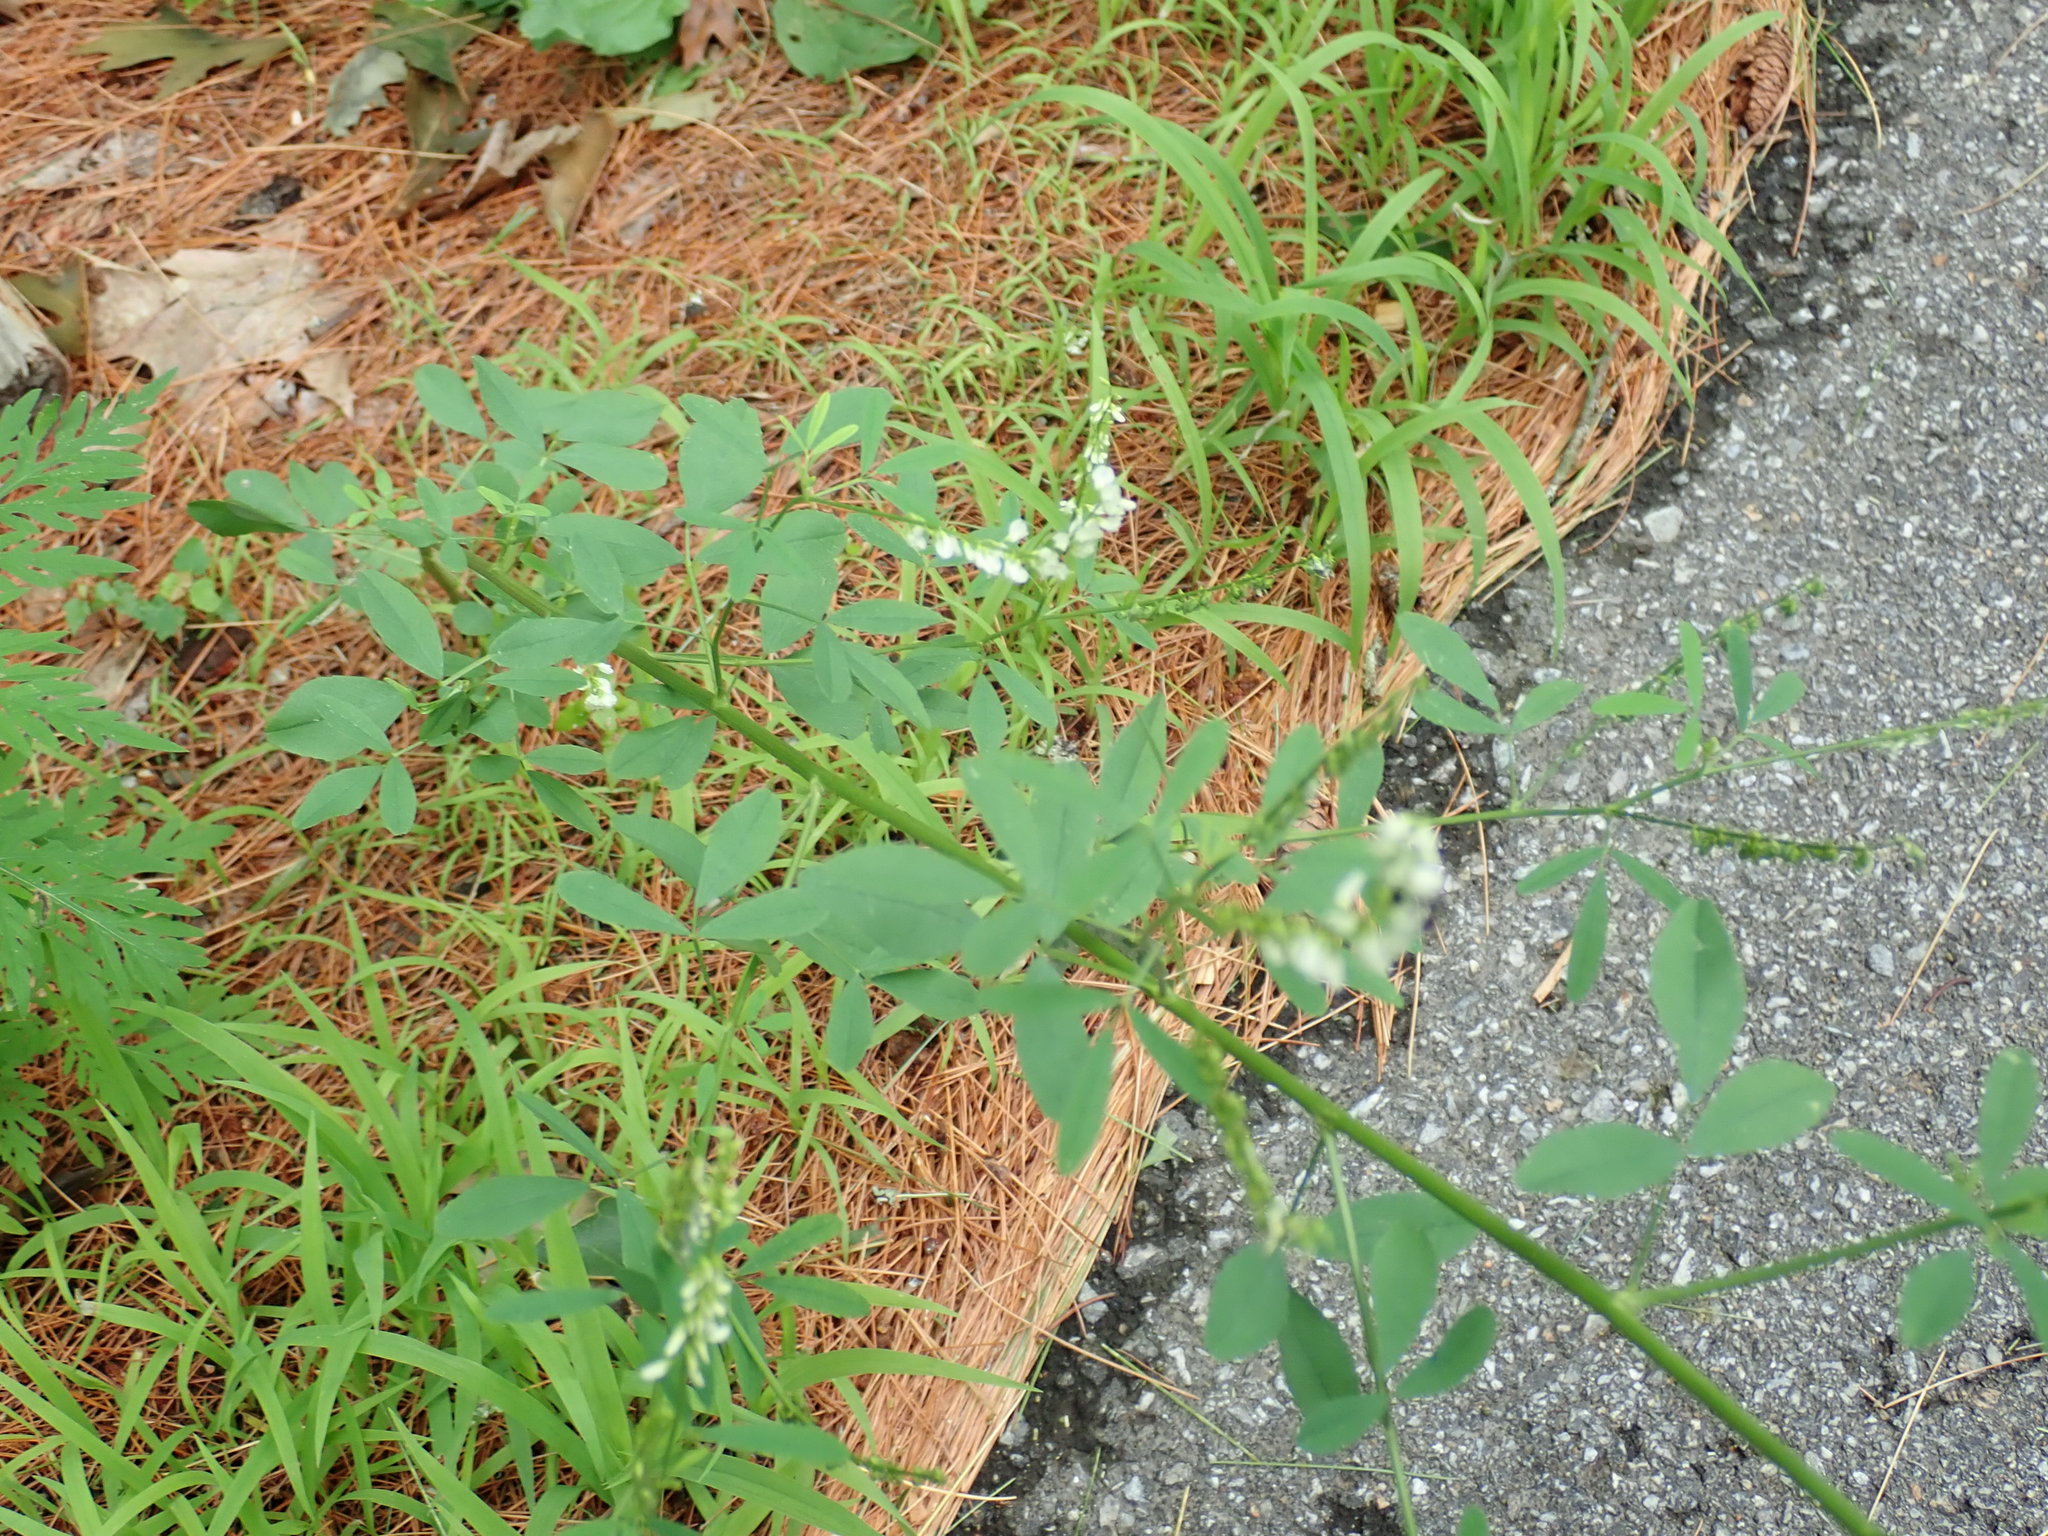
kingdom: Plantae
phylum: Tracheophyta
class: Magnoliopsida
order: Fabales
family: Fabaceae
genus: Melilotus
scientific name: Melilotus albus
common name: White melilot
